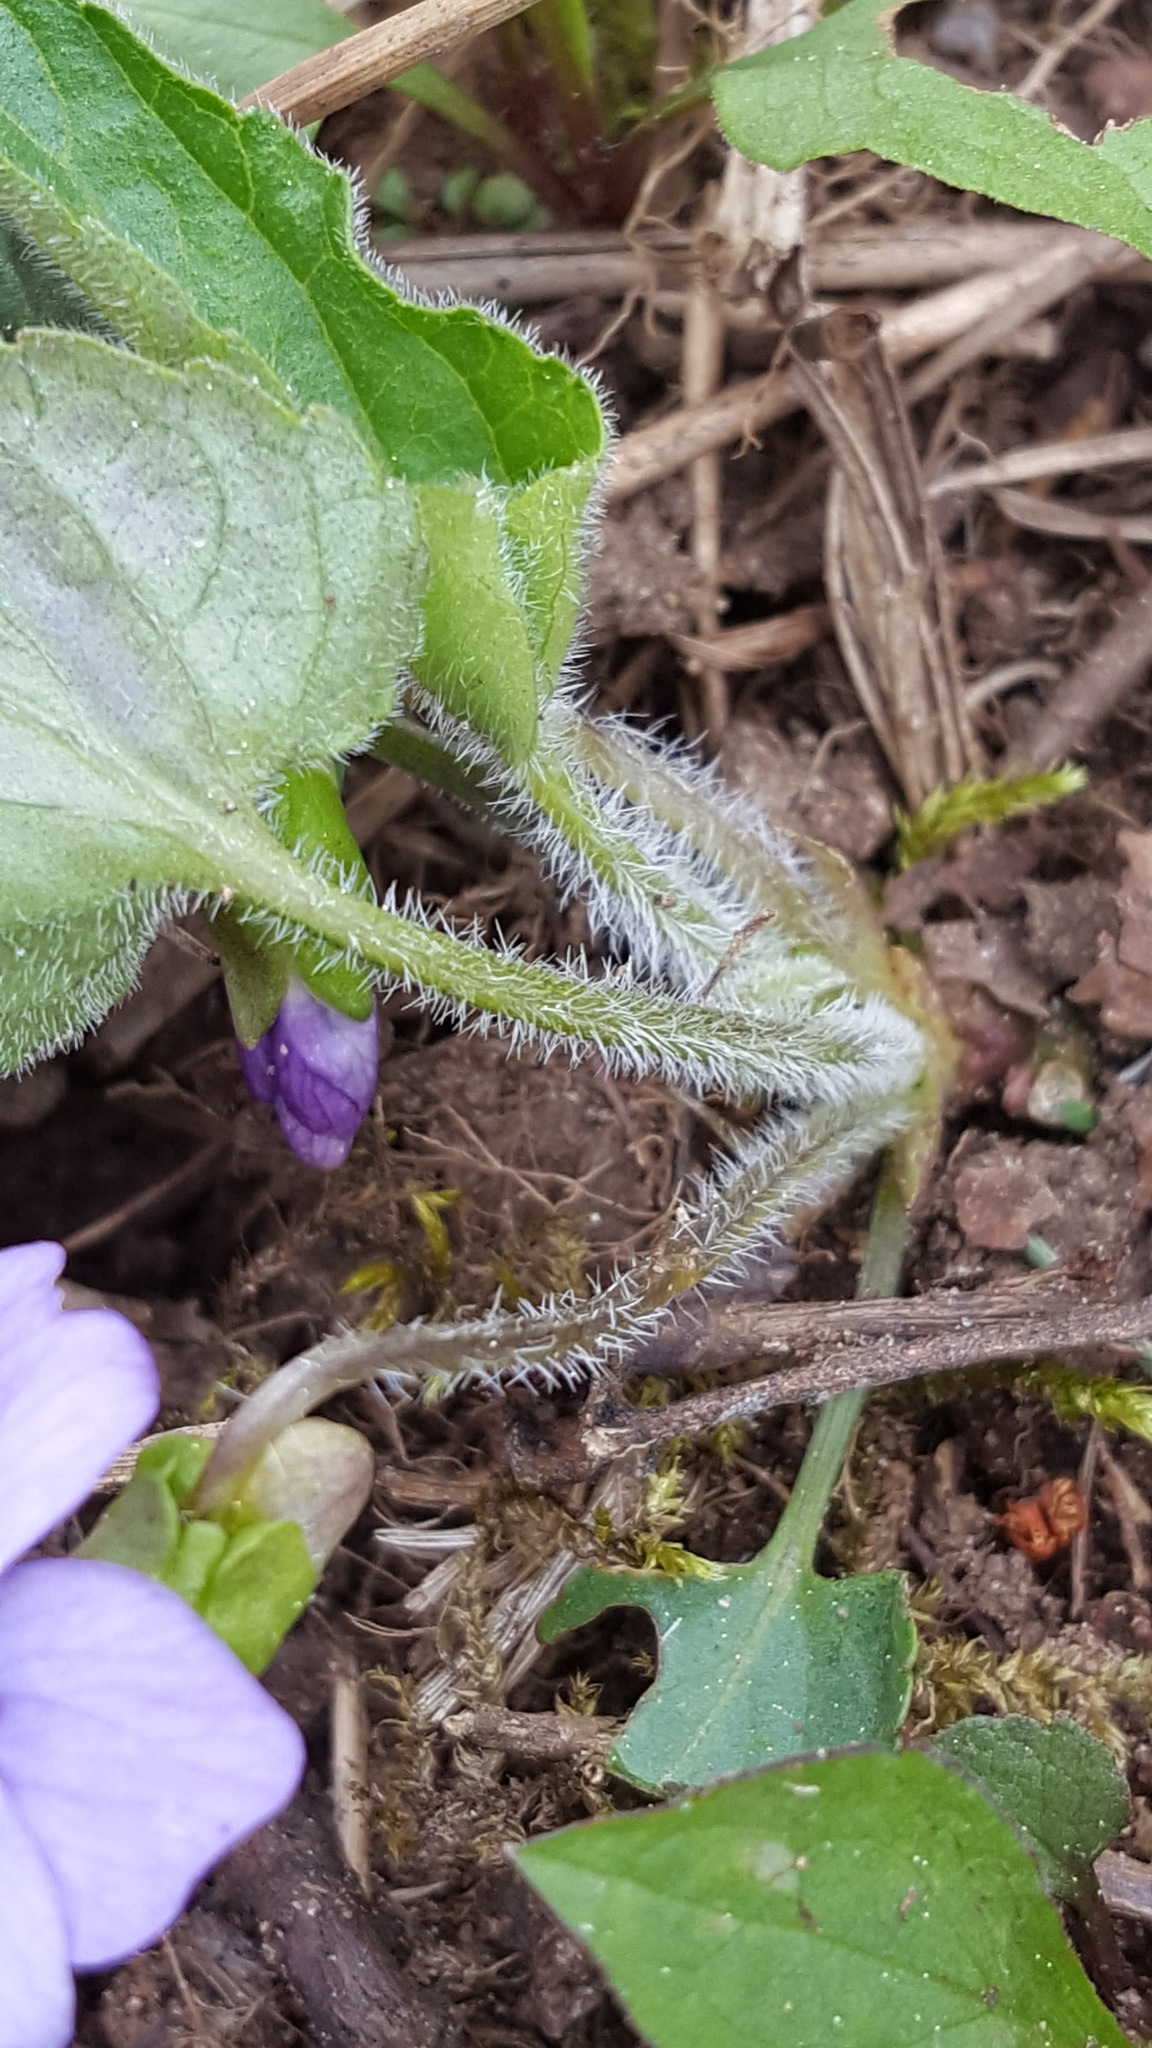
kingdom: Plantae
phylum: Tracheophyta
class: Magnoliopsida
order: Malpighiales
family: Violaceae
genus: Viola
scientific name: Viola sagittata
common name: Arrowhead violet
